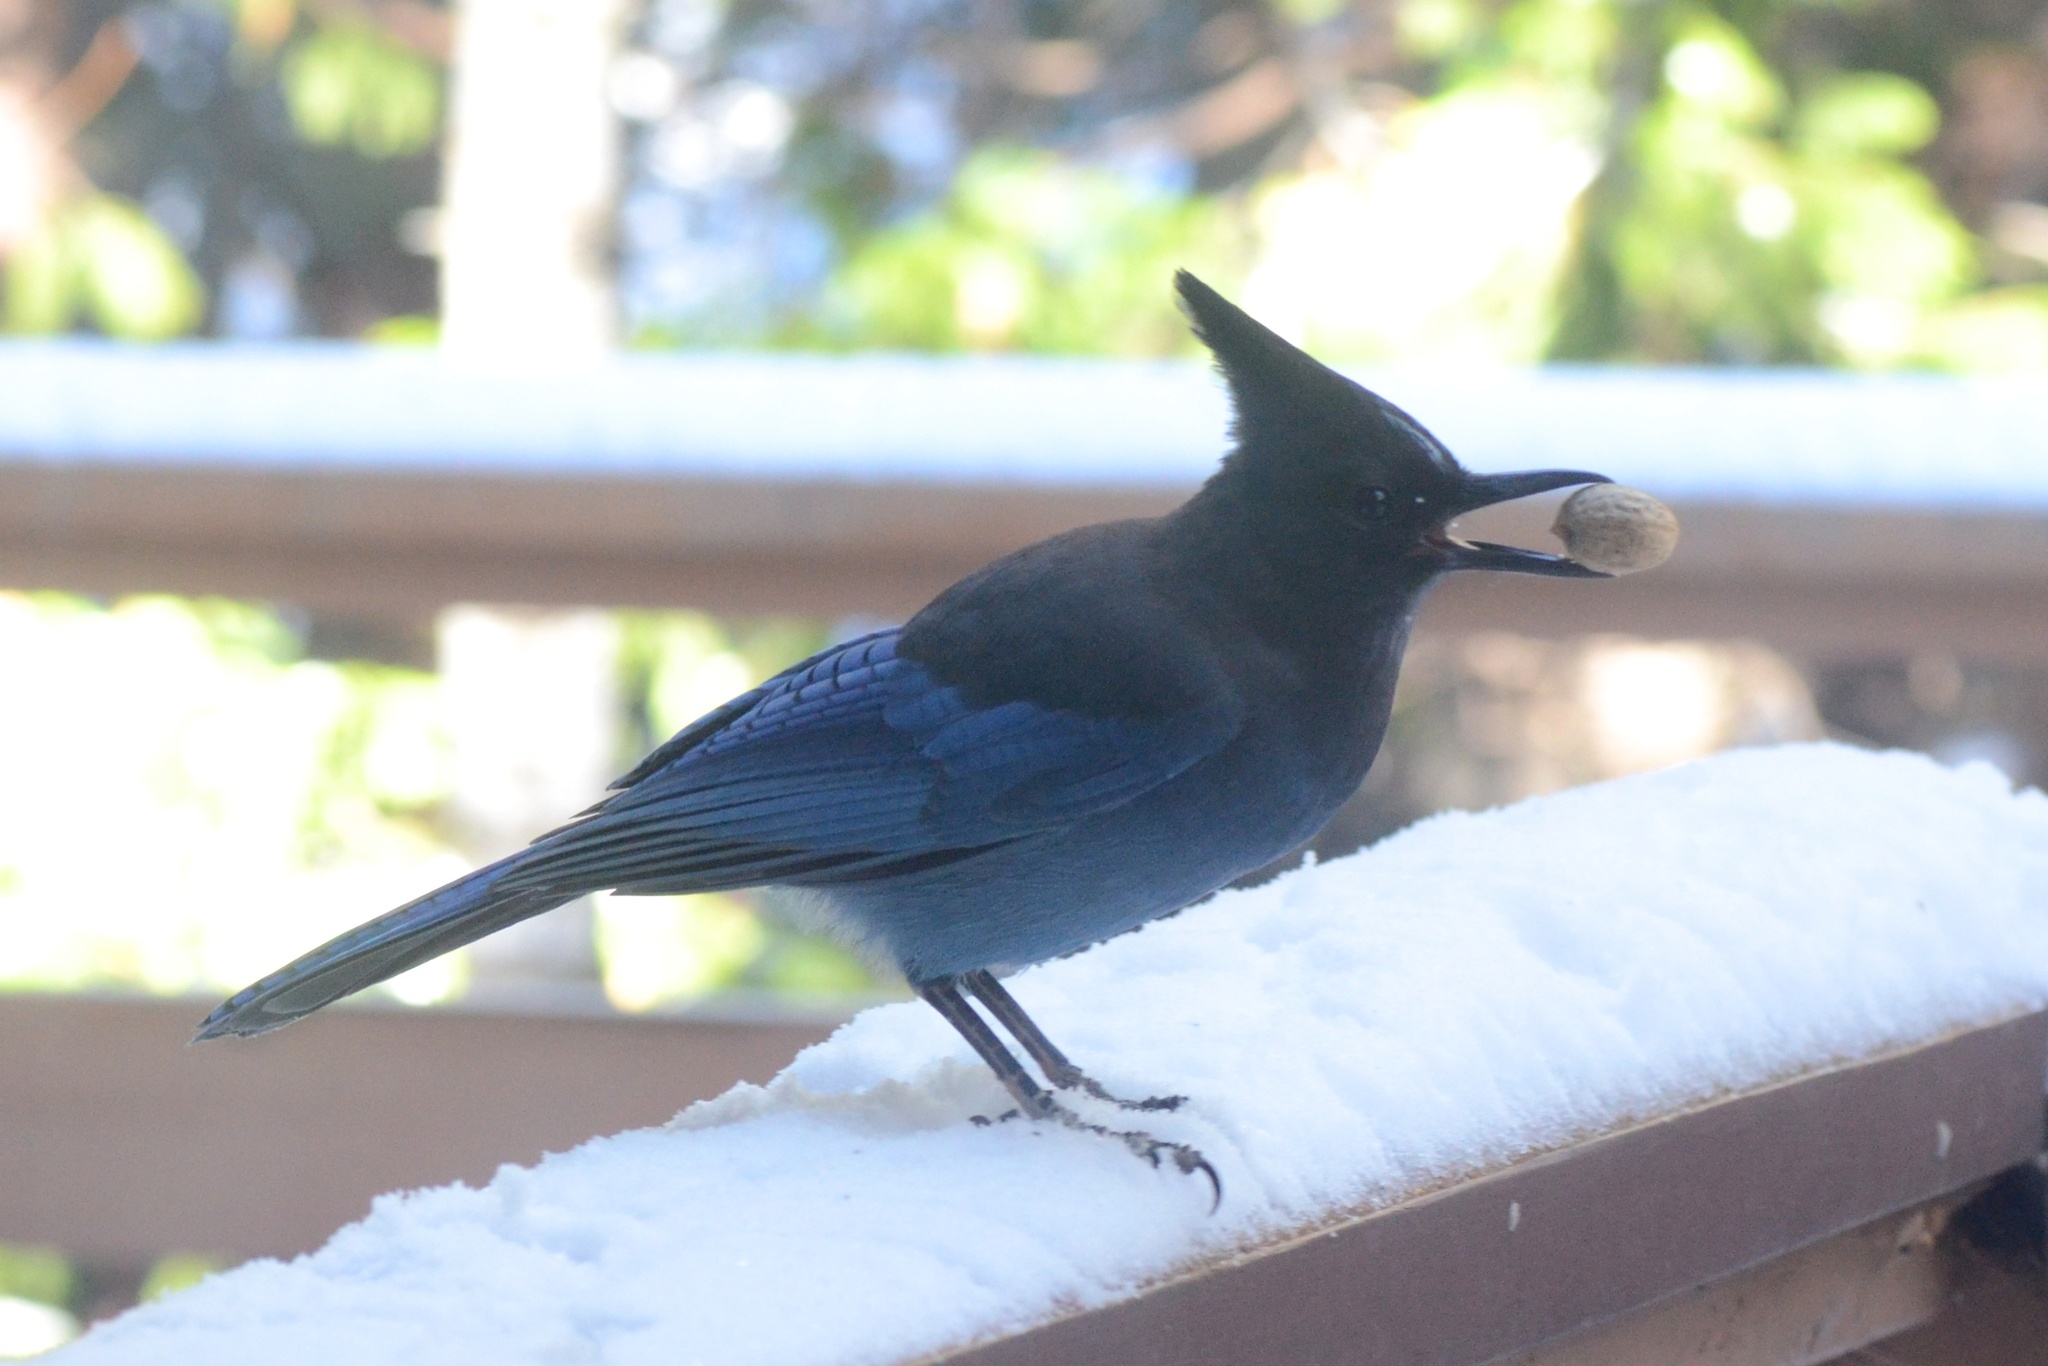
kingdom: Animalia
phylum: Chordata
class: Aves
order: Passeriformes
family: Corvidae
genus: Cyanocitta
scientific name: Cyanocitta stelleri
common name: Steller's jay
